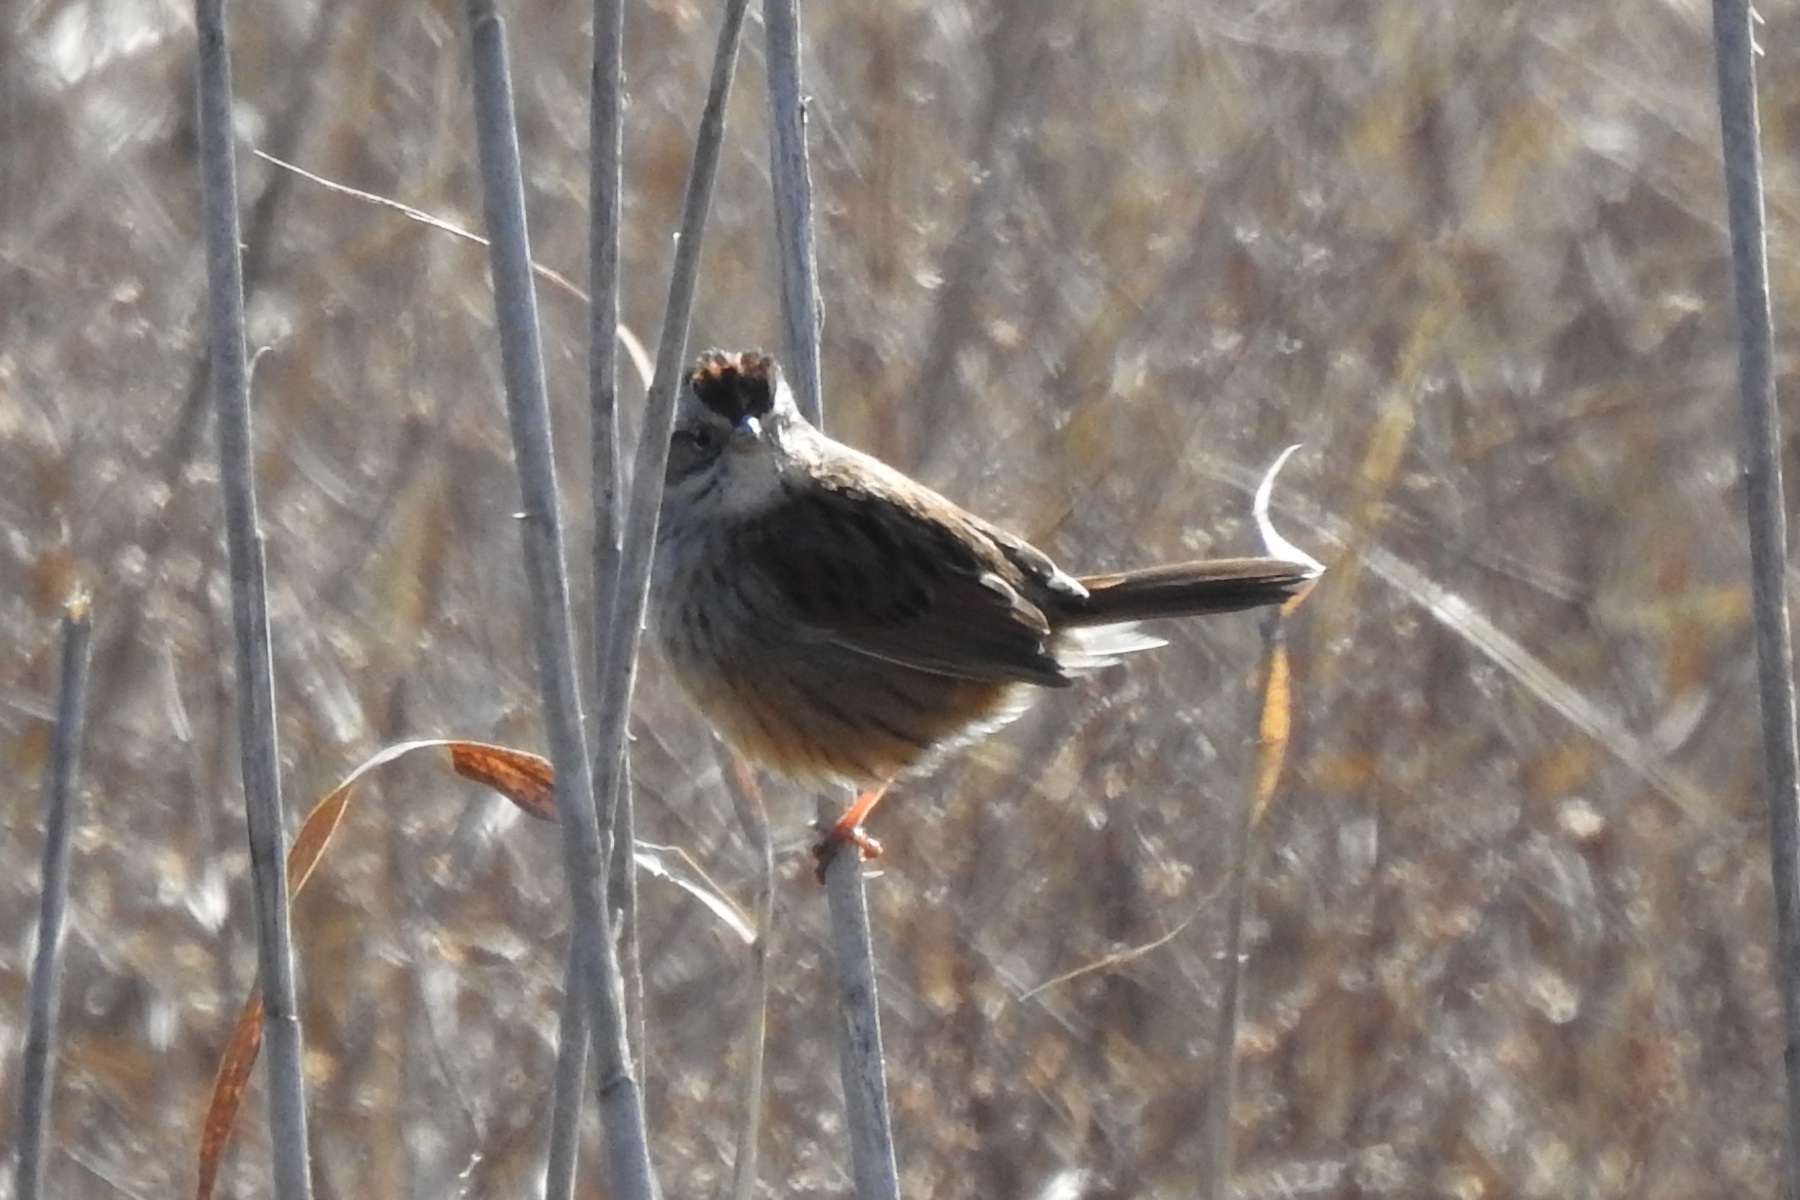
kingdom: Animalia
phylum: Chordata
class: Aves
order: Passeriformes
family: Passerellidae
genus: Melospiza
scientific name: Melospiza georgiana
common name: Swamp sparrow
